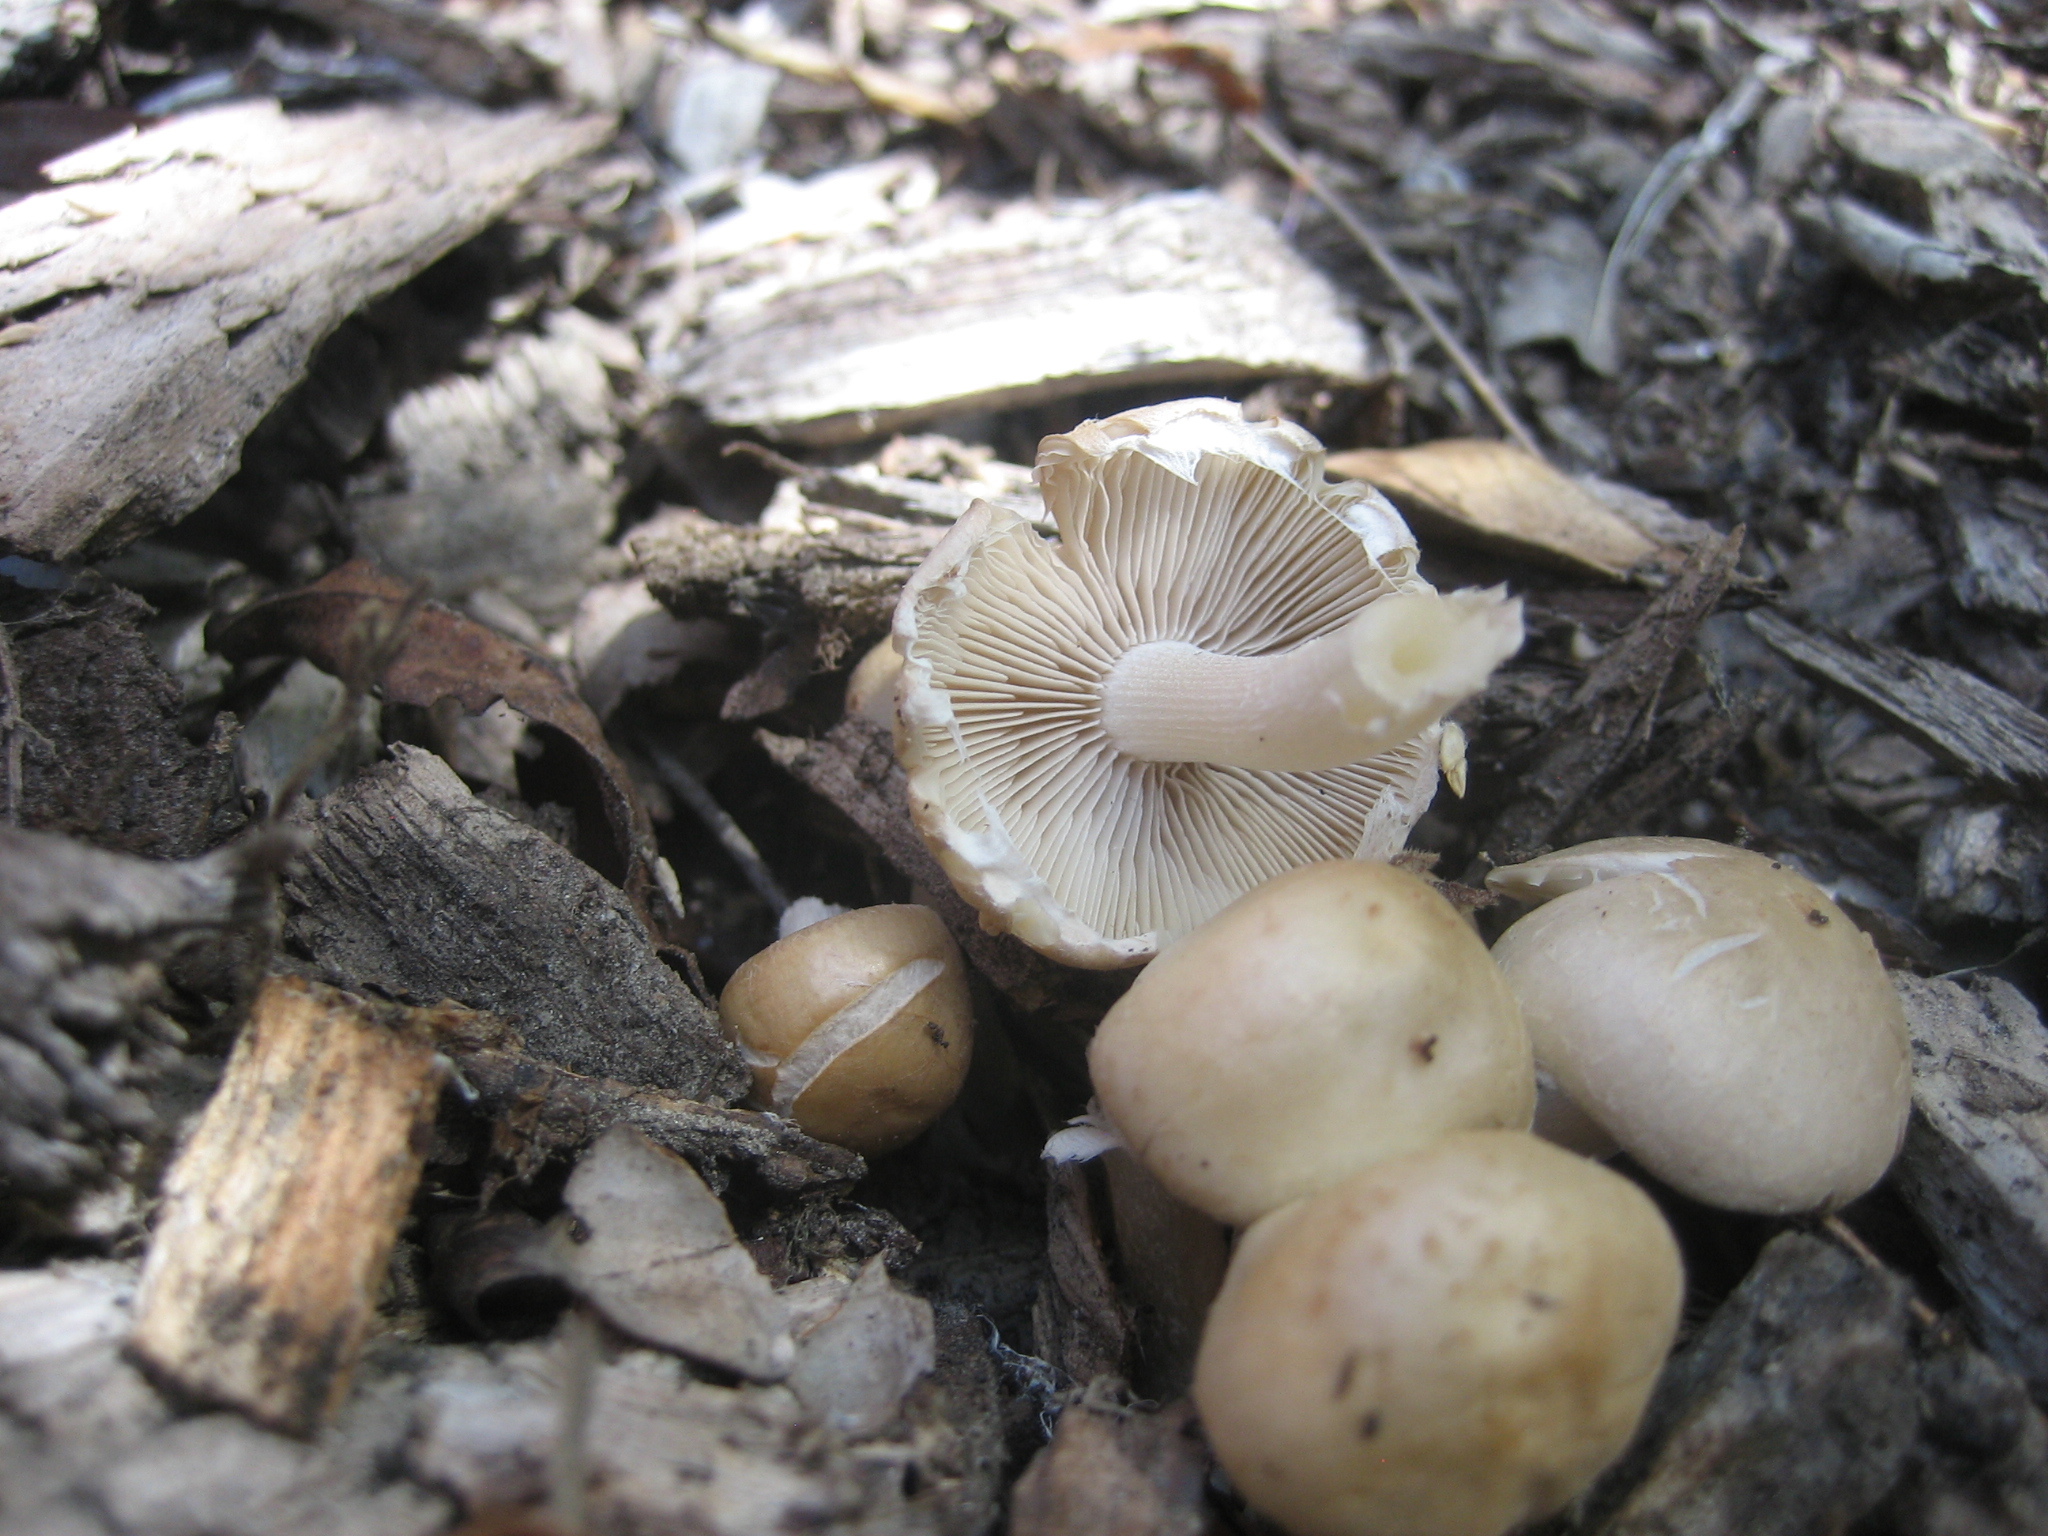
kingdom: Fungi
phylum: Basidiomycota
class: Agaricomycetes
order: Agaricales
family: Psathyrellaceae
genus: Candolleomyces
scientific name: Candolleomyces candolleanus
